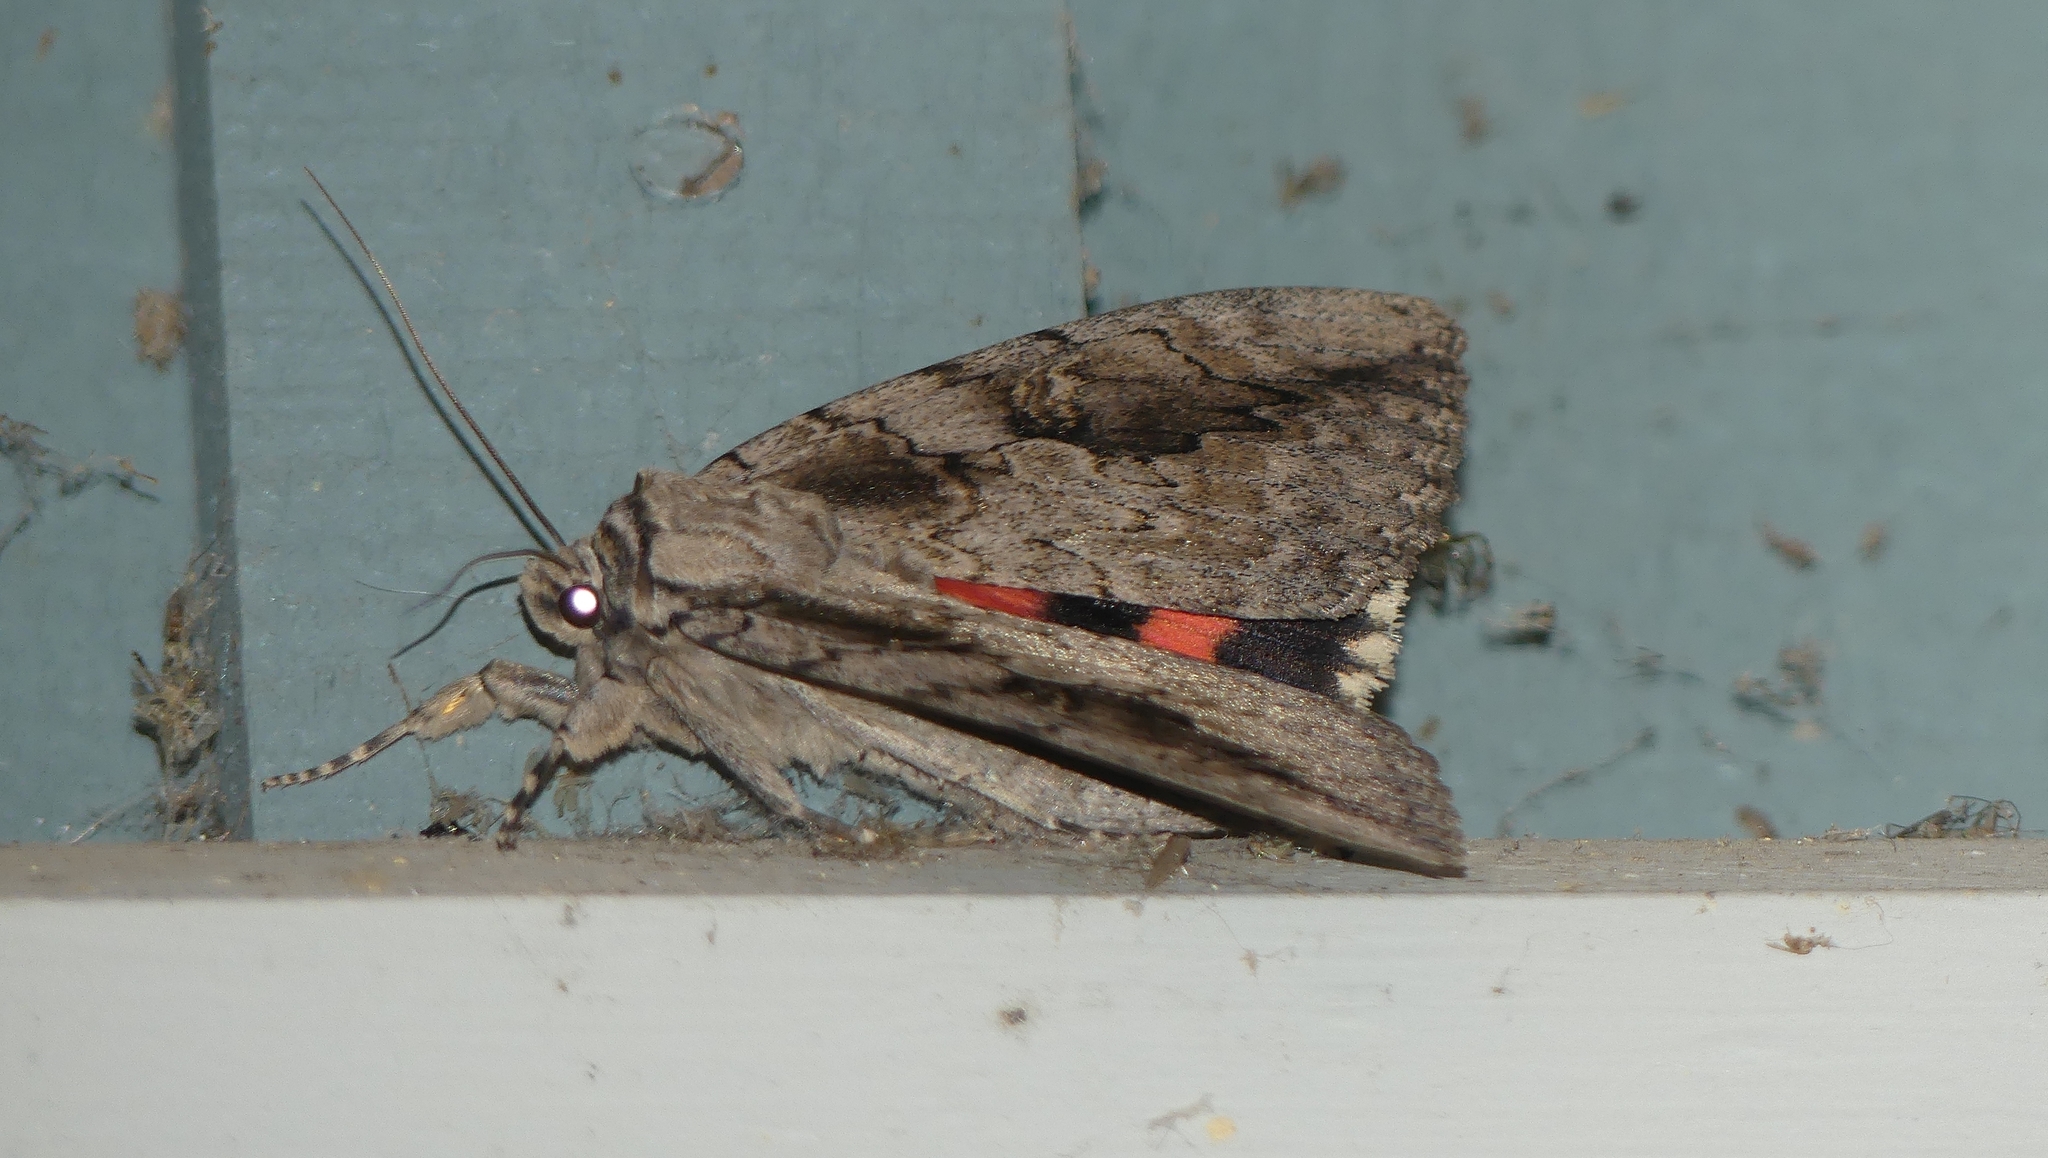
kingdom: Animalia
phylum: Arthropoda
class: Insecta
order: Lepidoptera
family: Erebidae
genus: Catocala
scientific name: Catocala amatrix
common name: Sweetheart underwing
